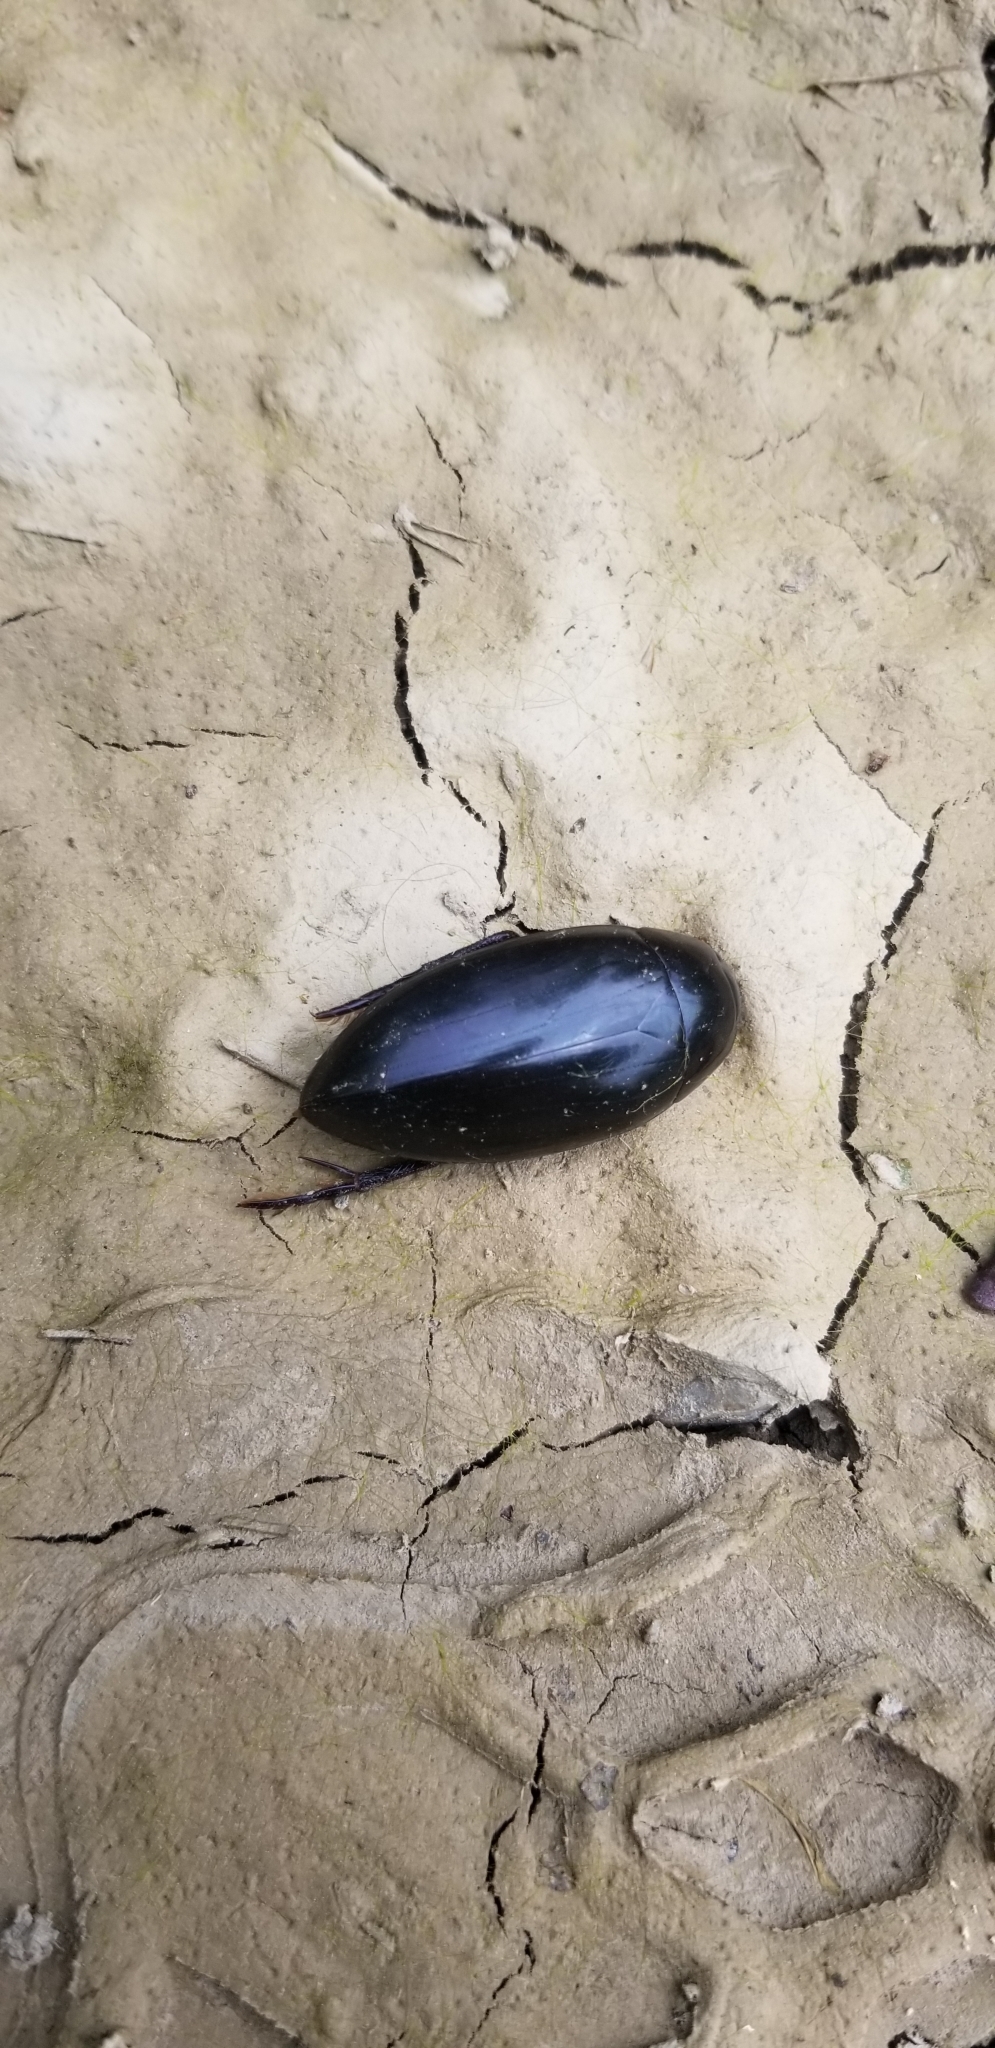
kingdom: Animalia
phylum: Arthropoda
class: Insecta
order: Coleoptera
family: Hydrophilidae
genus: Hydrophilus
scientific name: Hydrophilus triangularis
